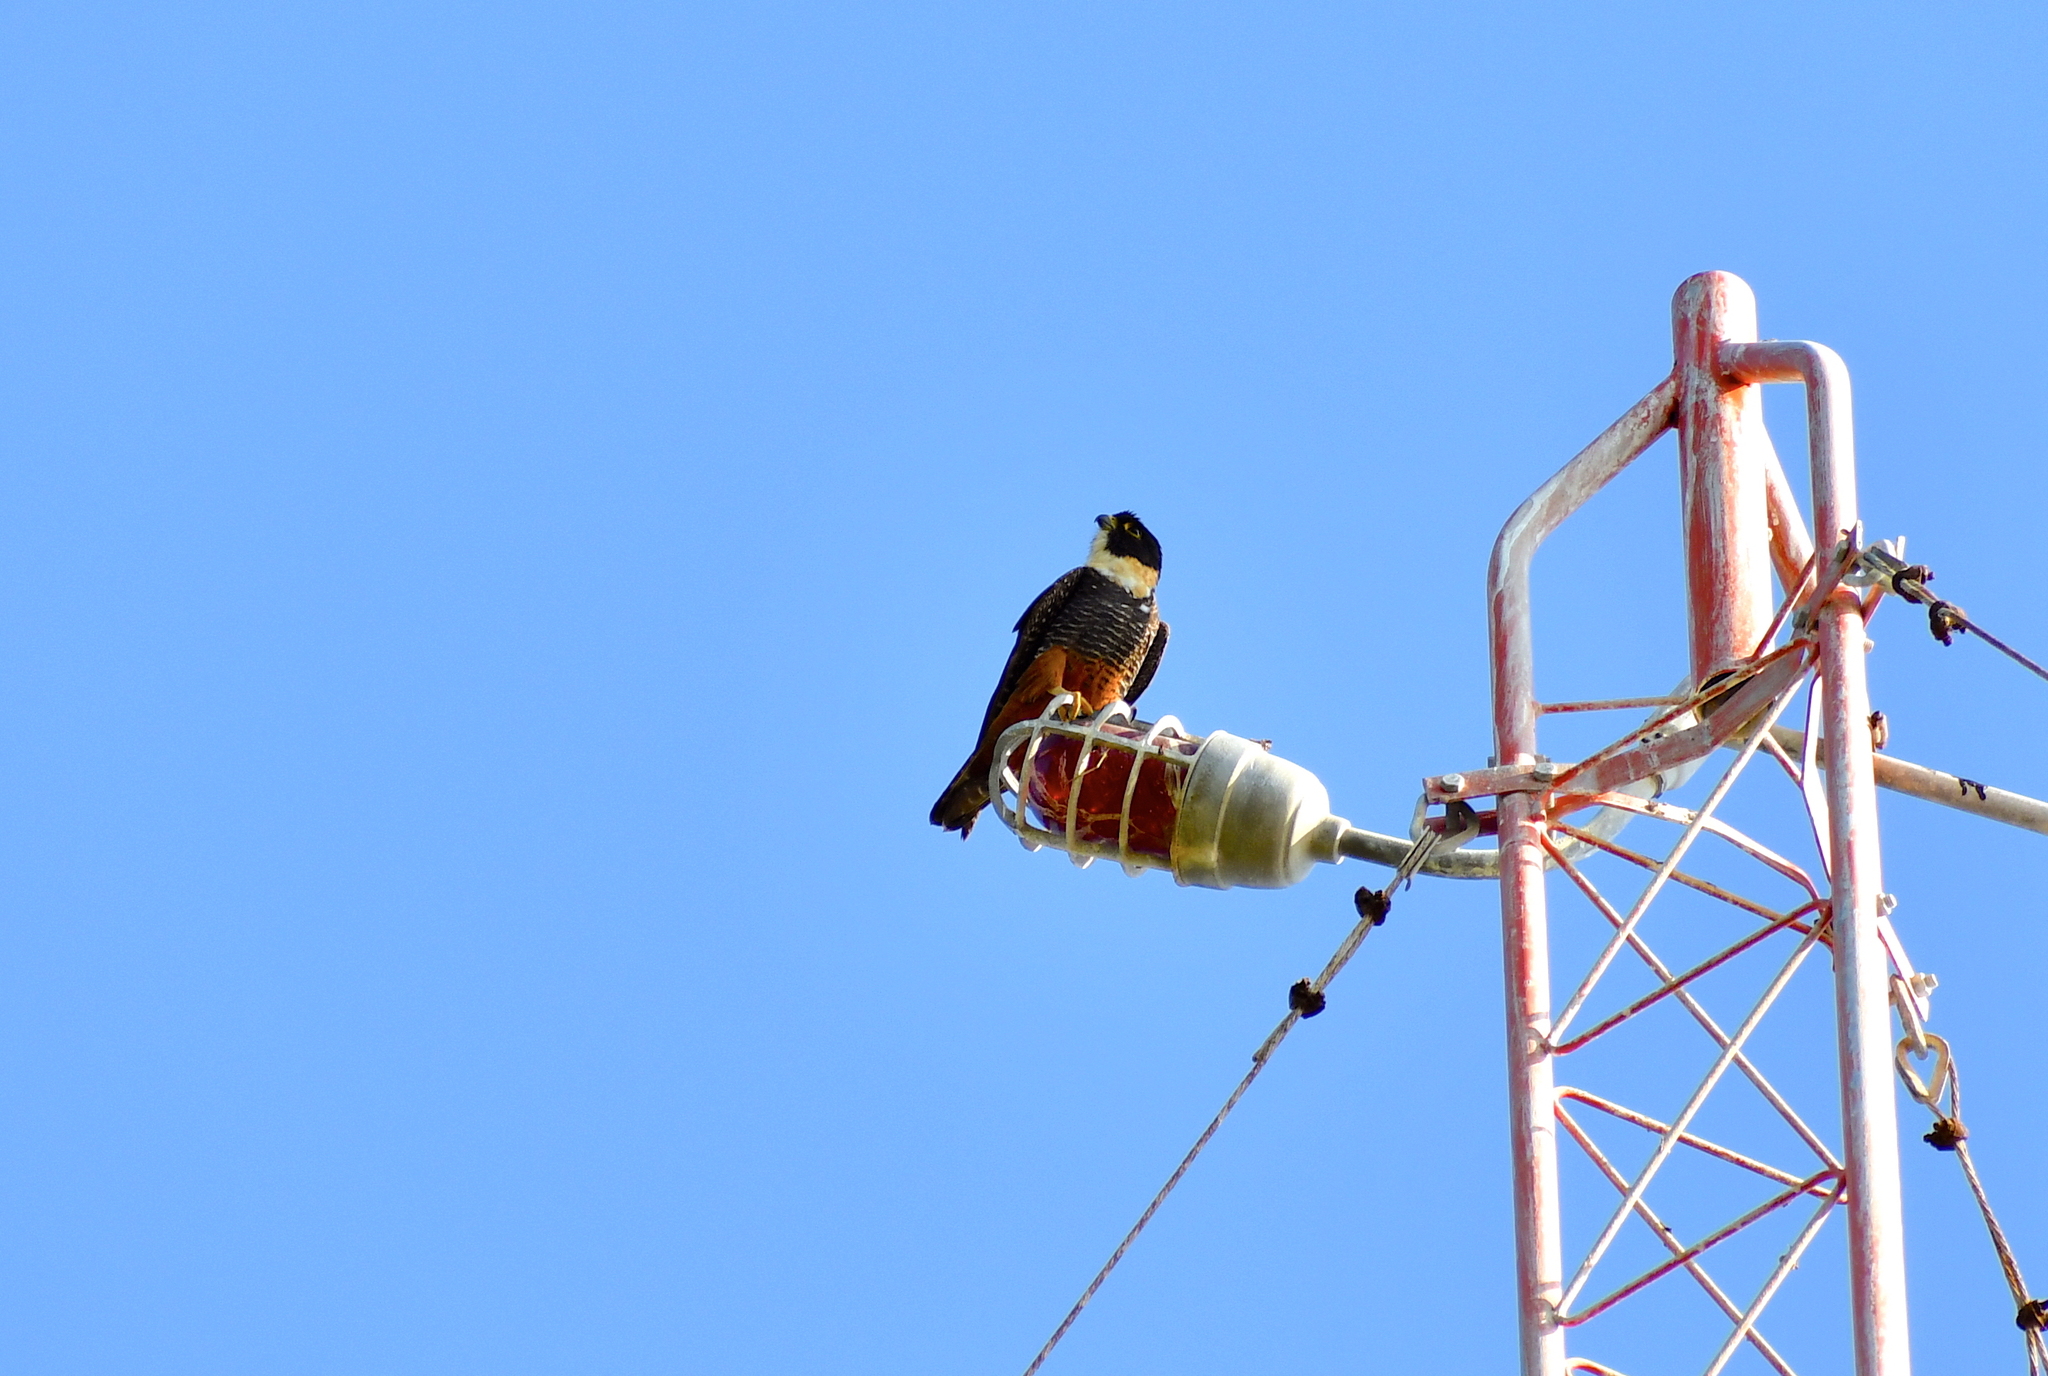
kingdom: Animalia
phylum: Chordata
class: Aves
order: Falconiformes
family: Falconidae
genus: Falco
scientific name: Falco rufigularis
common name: Bat falcon
